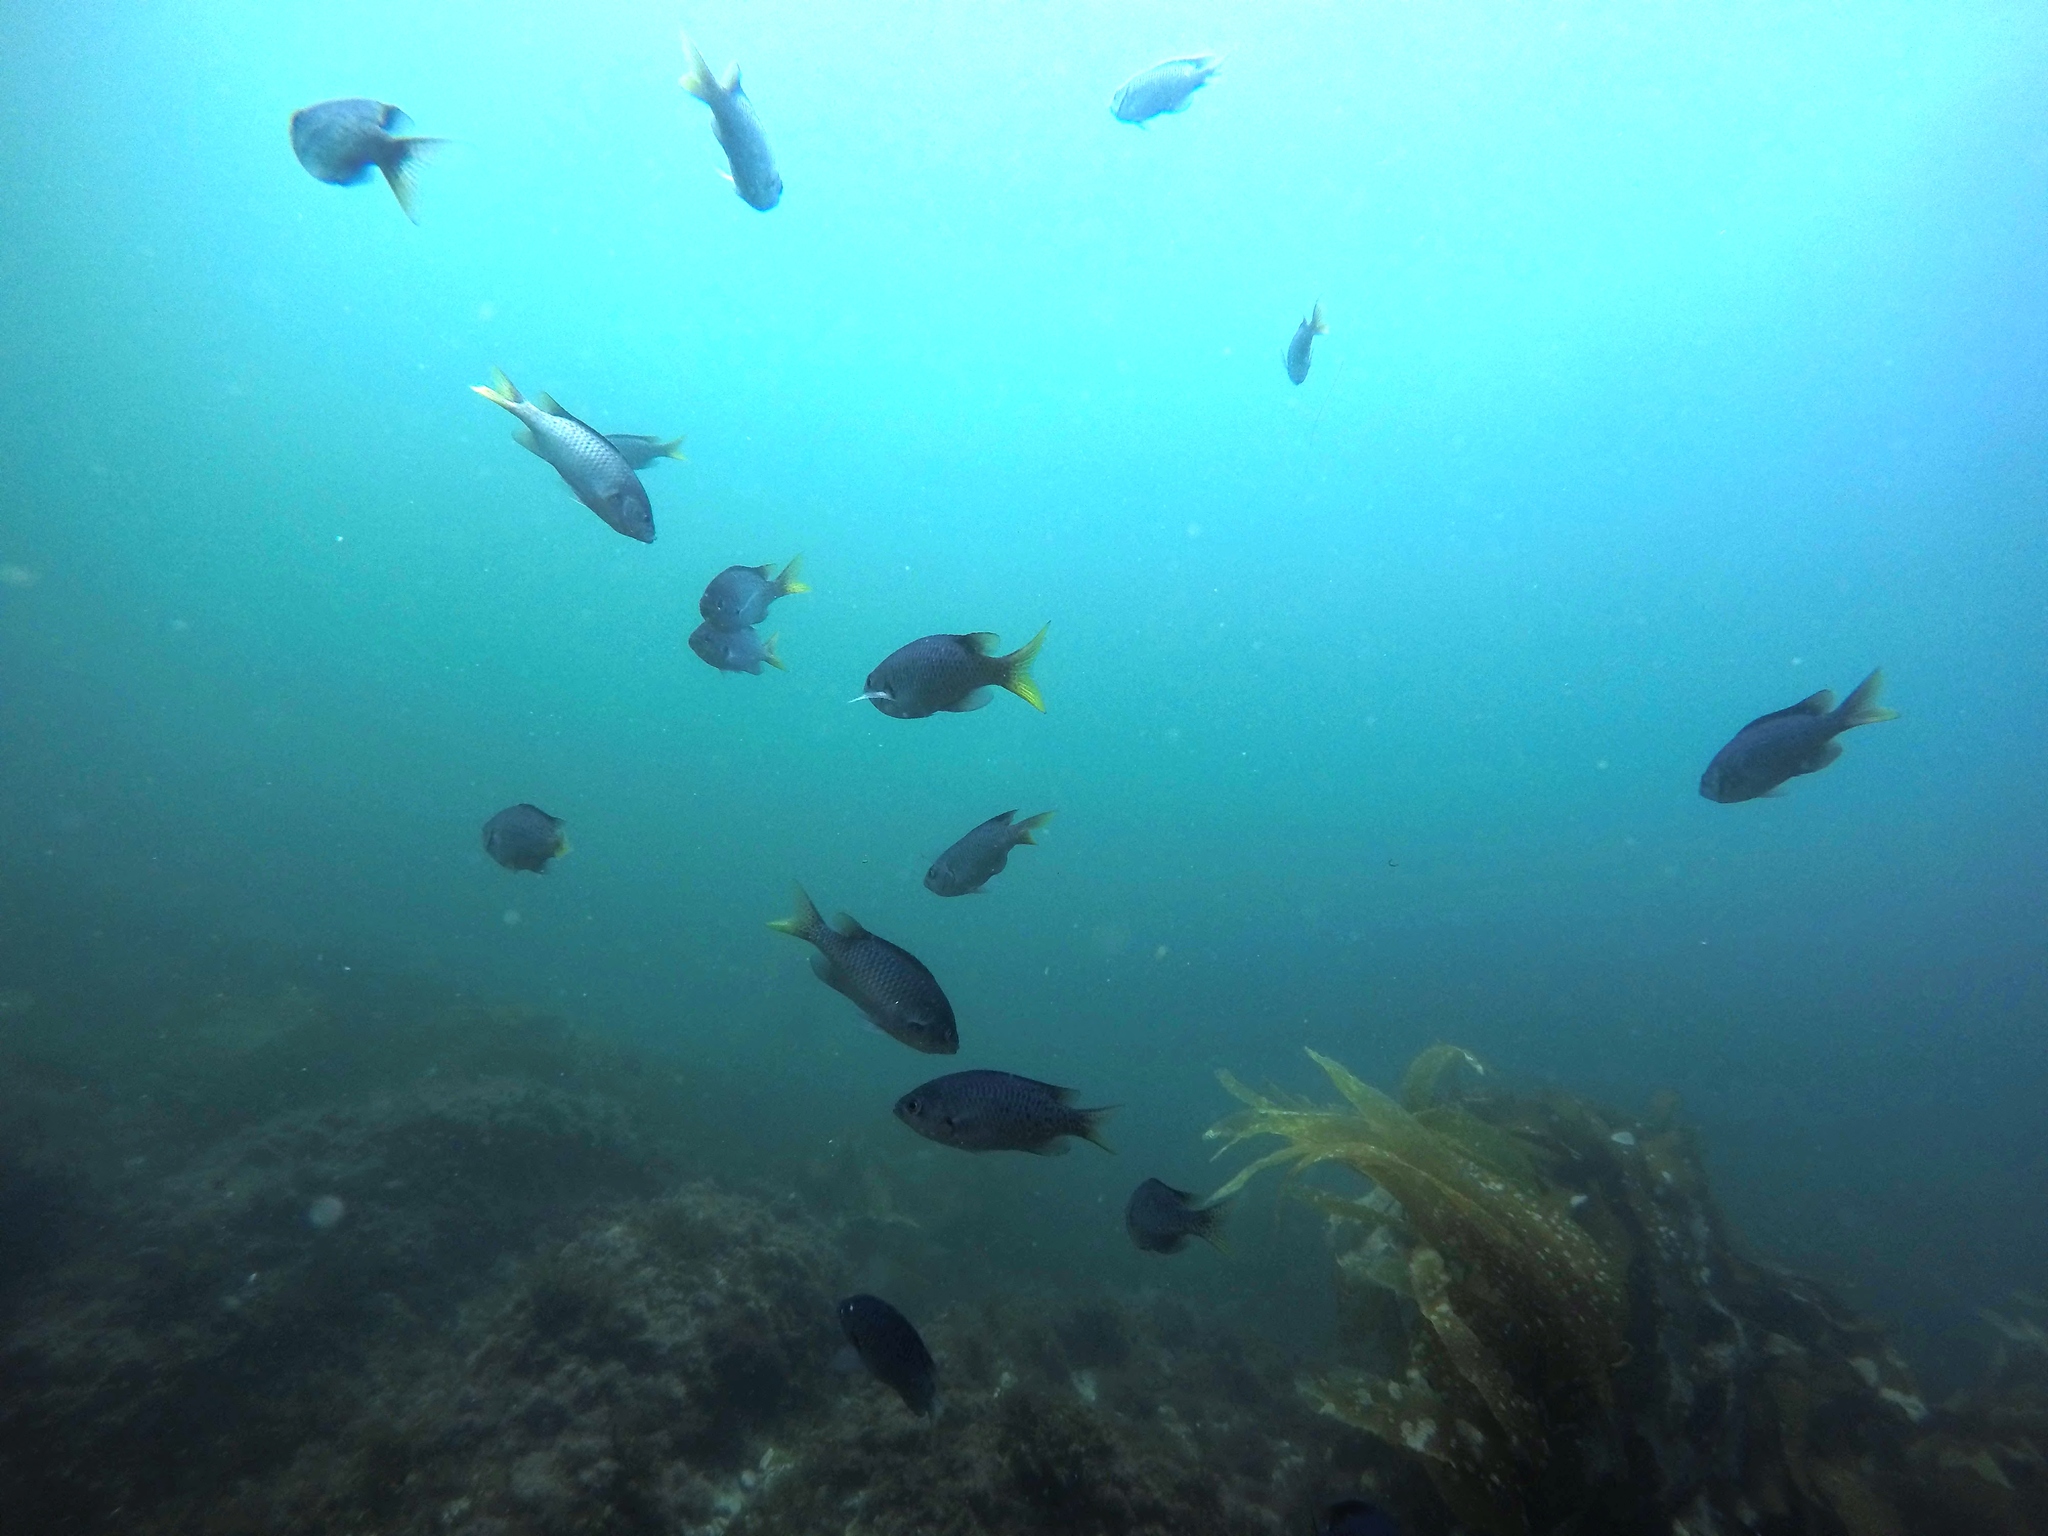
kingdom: Animalia
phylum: Chordata
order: Perciformes
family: Pomacentridae
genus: Chromis
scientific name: Chromis punctipinnis
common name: Blacksmith
